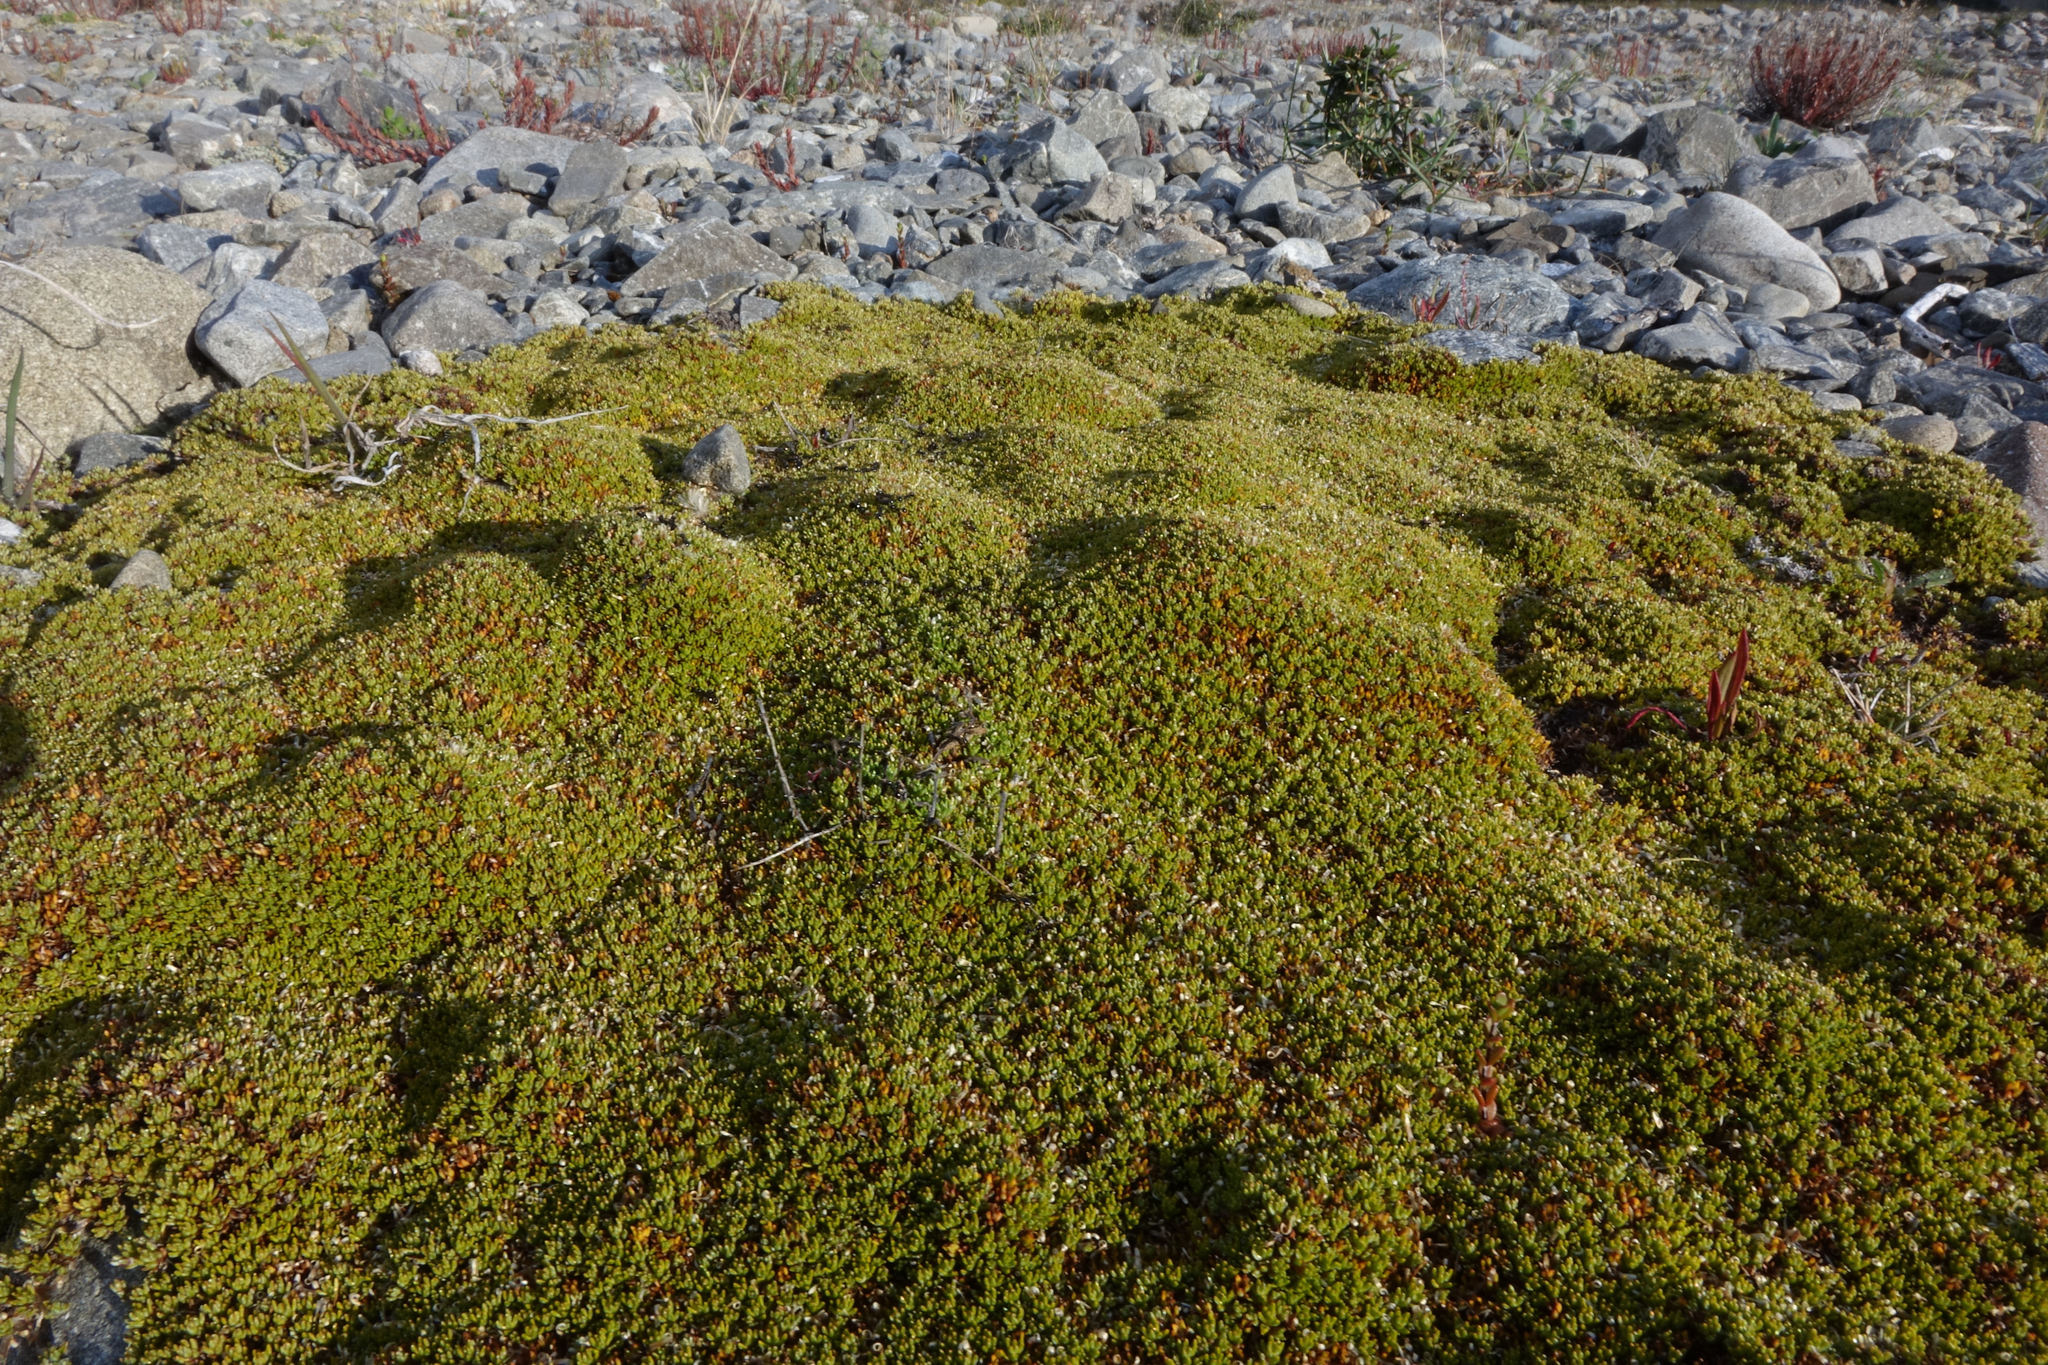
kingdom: Plantae
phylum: Tracheophyta
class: Magnoliopsida
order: Asterales
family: Asteraceae
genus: Raoulia
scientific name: Raoulia haastii
